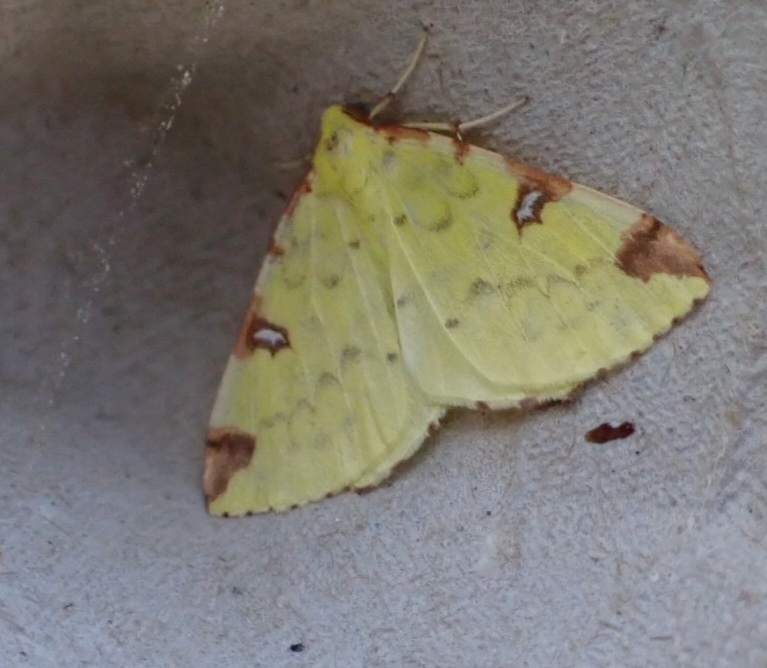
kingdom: Animalia
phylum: Arthropoda
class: Insecta
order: Lepidoptera
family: Geometridae
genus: Opisthograptis
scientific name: Opisthograptis luteolata
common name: Brimstone moth
